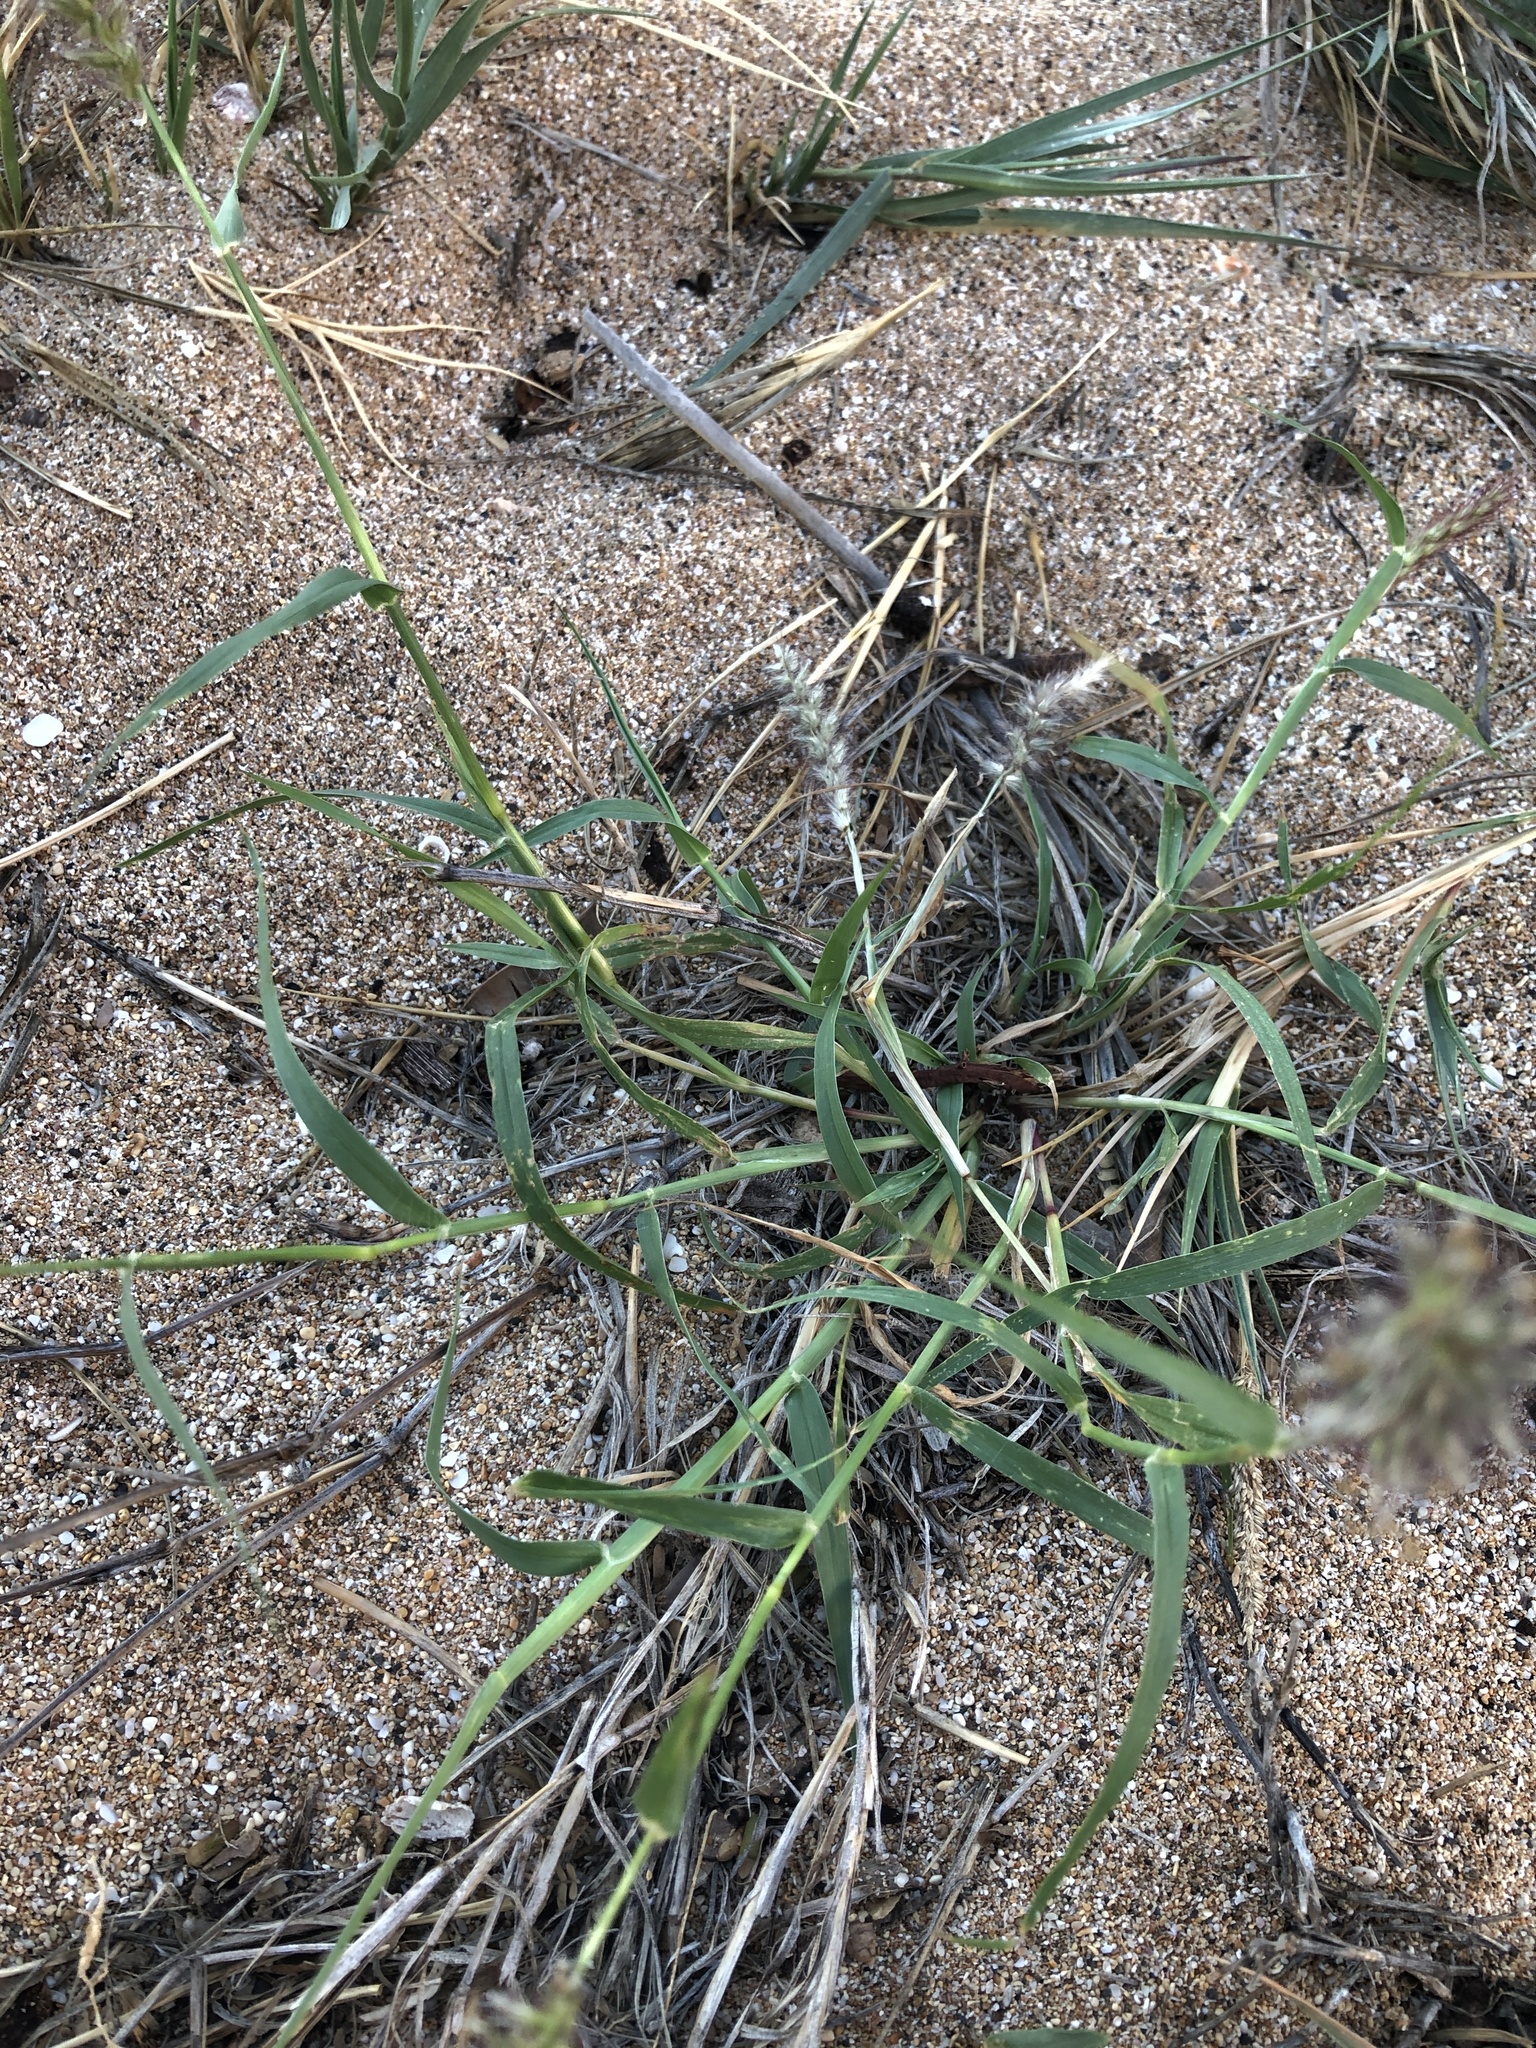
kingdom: Plantae
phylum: Tracheophyta
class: Liliopsida
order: Poales
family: Poaceae
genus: Cenchrus
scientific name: Cenchrus ciliaris
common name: Buffelgrass
